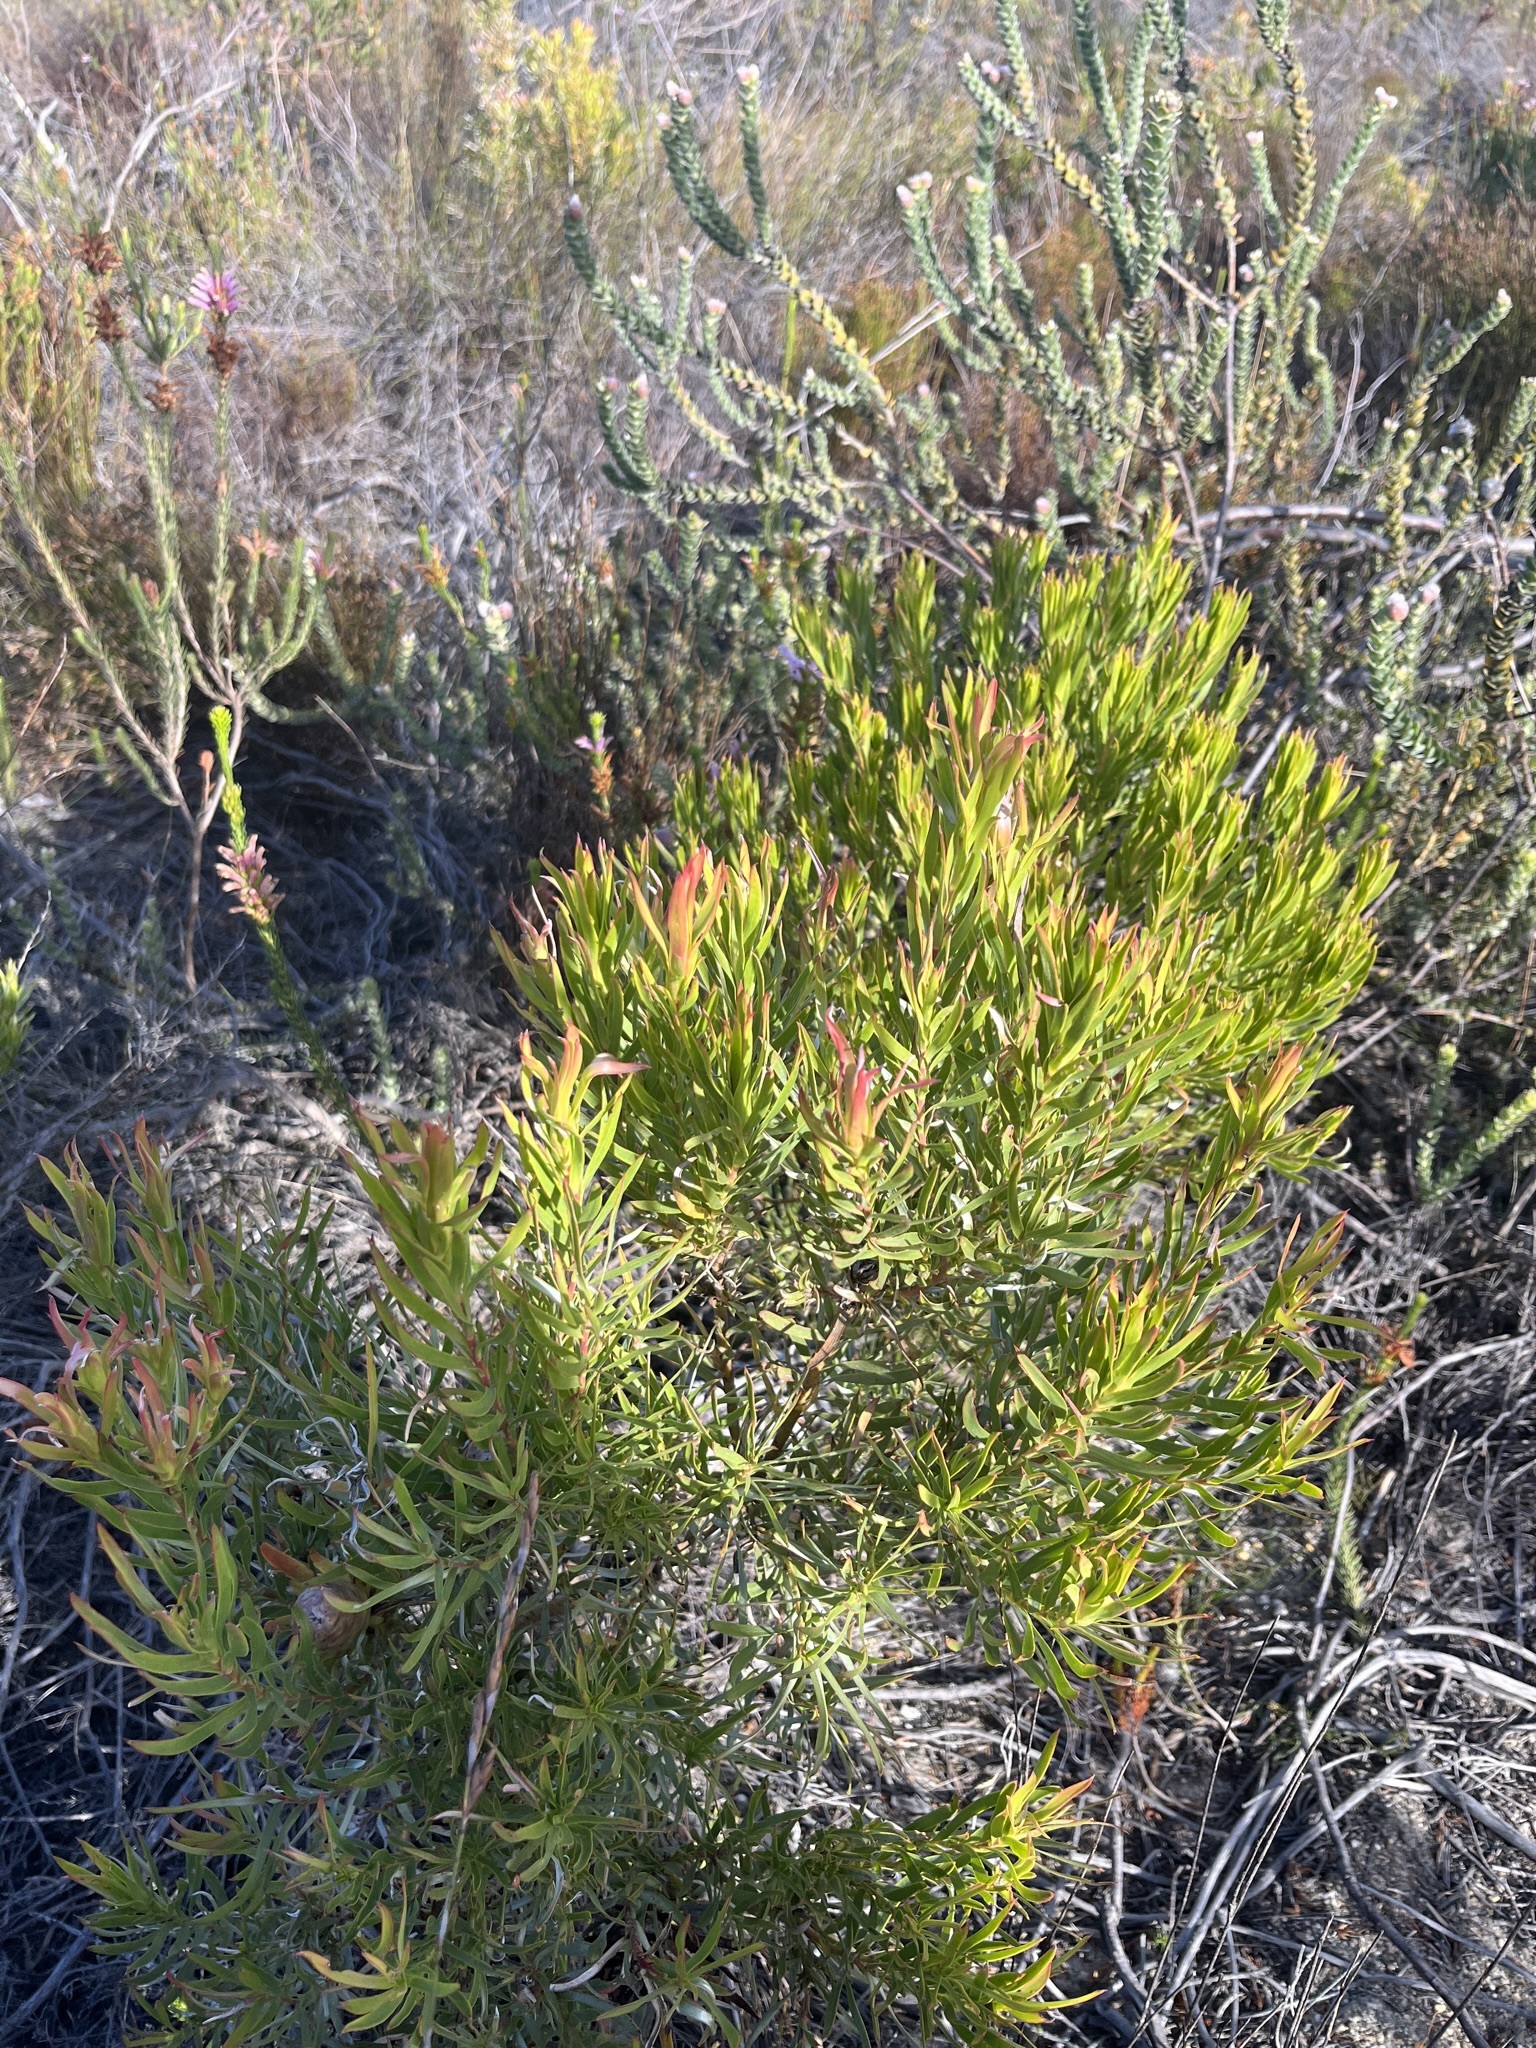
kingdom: Plantae
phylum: Tracheophyta
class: Magnoliopsida
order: Proteales
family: Proteaceae
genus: Leucadendron
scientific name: Leucadendron xanthoconus
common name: Sickle-leaf conebush
